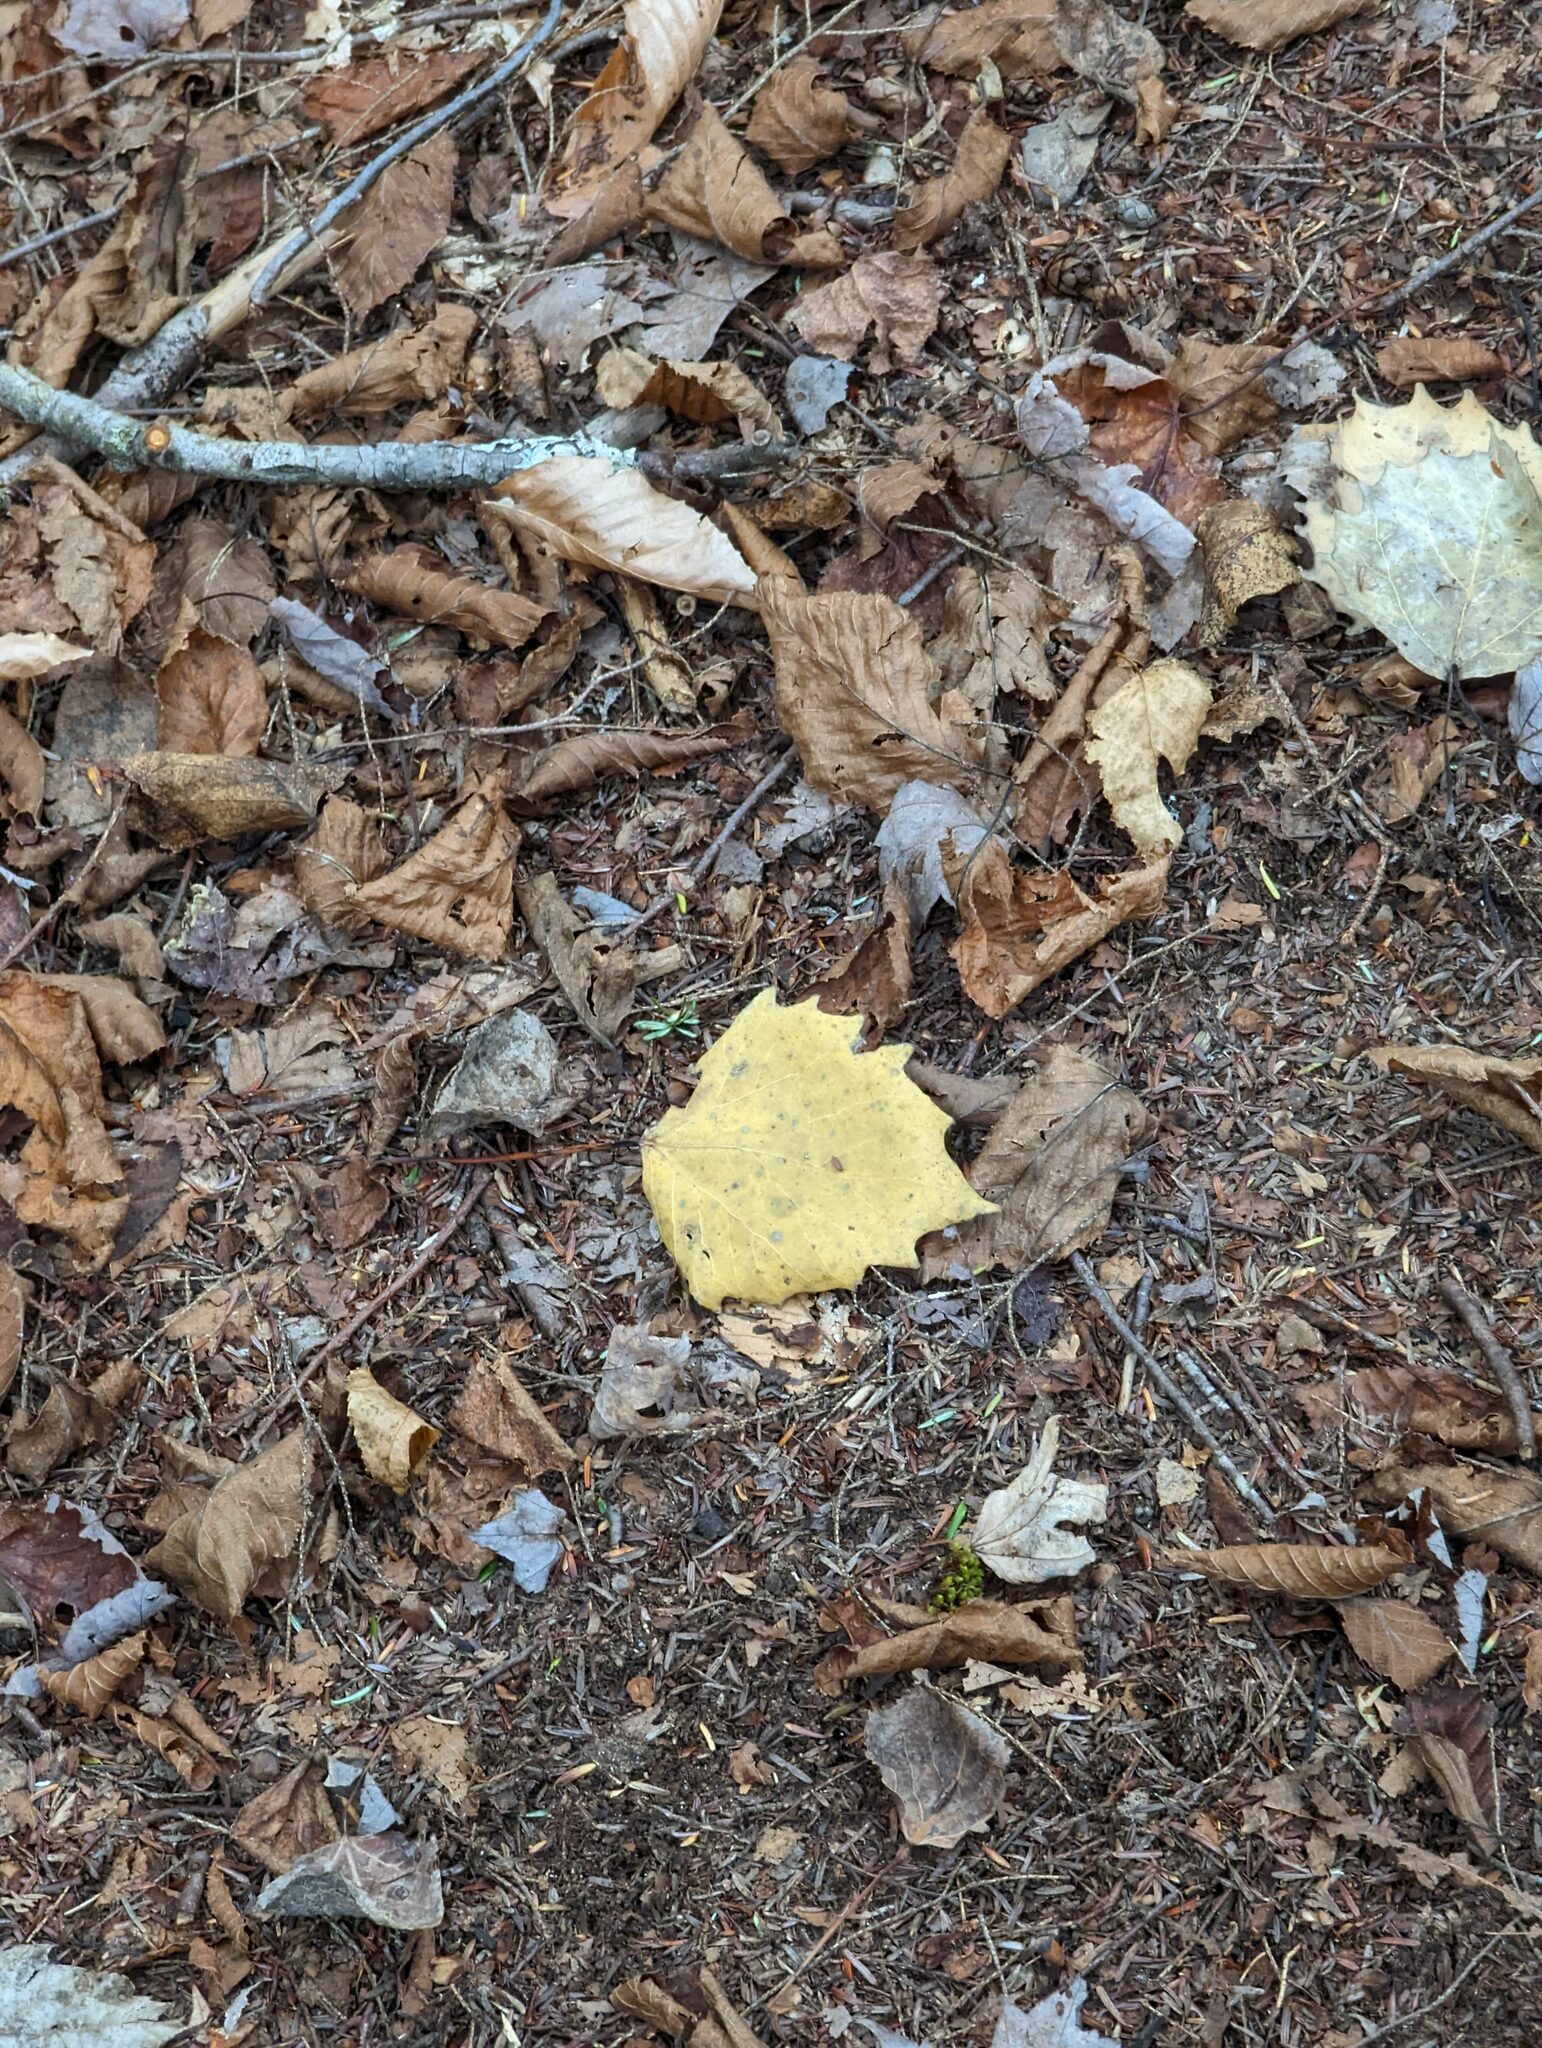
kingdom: Plantae
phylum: Tracheophyta
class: Magnoliopsida
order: Malpighiales
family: Salicaceae
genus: Populus
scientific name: Populus grandidentata
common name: Bigtooth aspen
